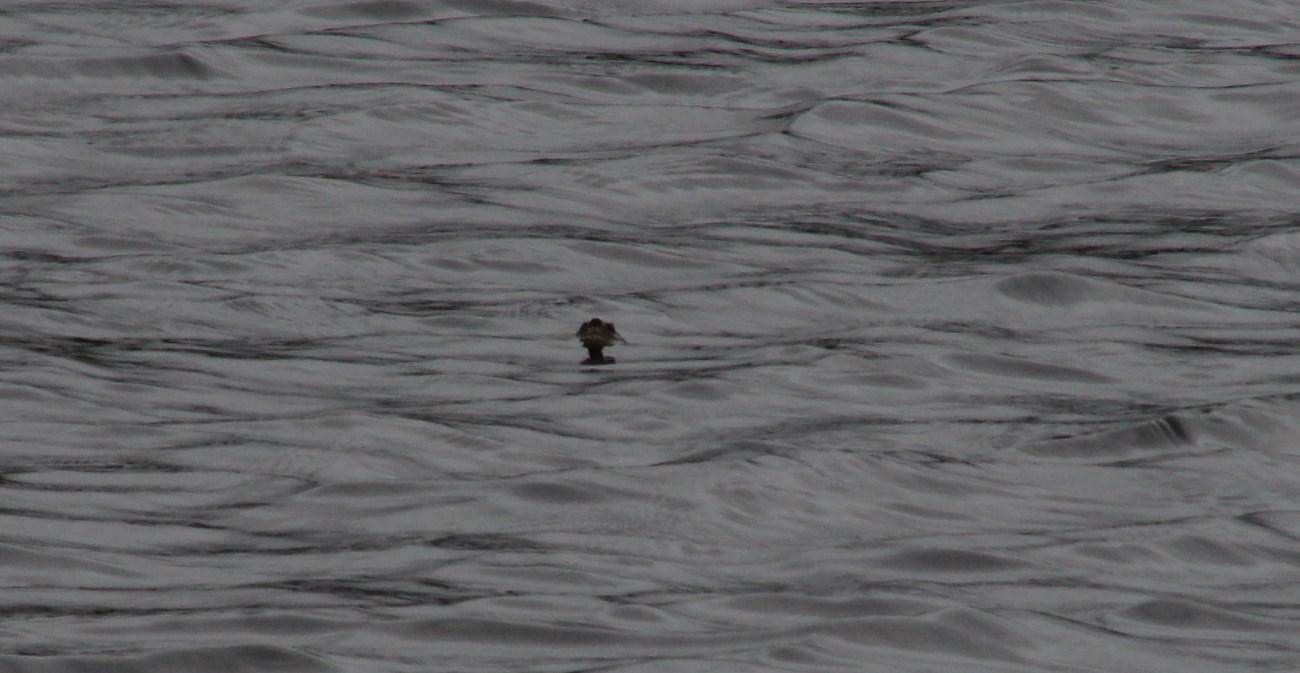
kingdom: Animalia
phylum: Chordata
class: Testudines
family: Pelomedusidae
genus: Pelomedusa
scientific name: Pelomedusa galeata
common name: South african helmeted terrapin
